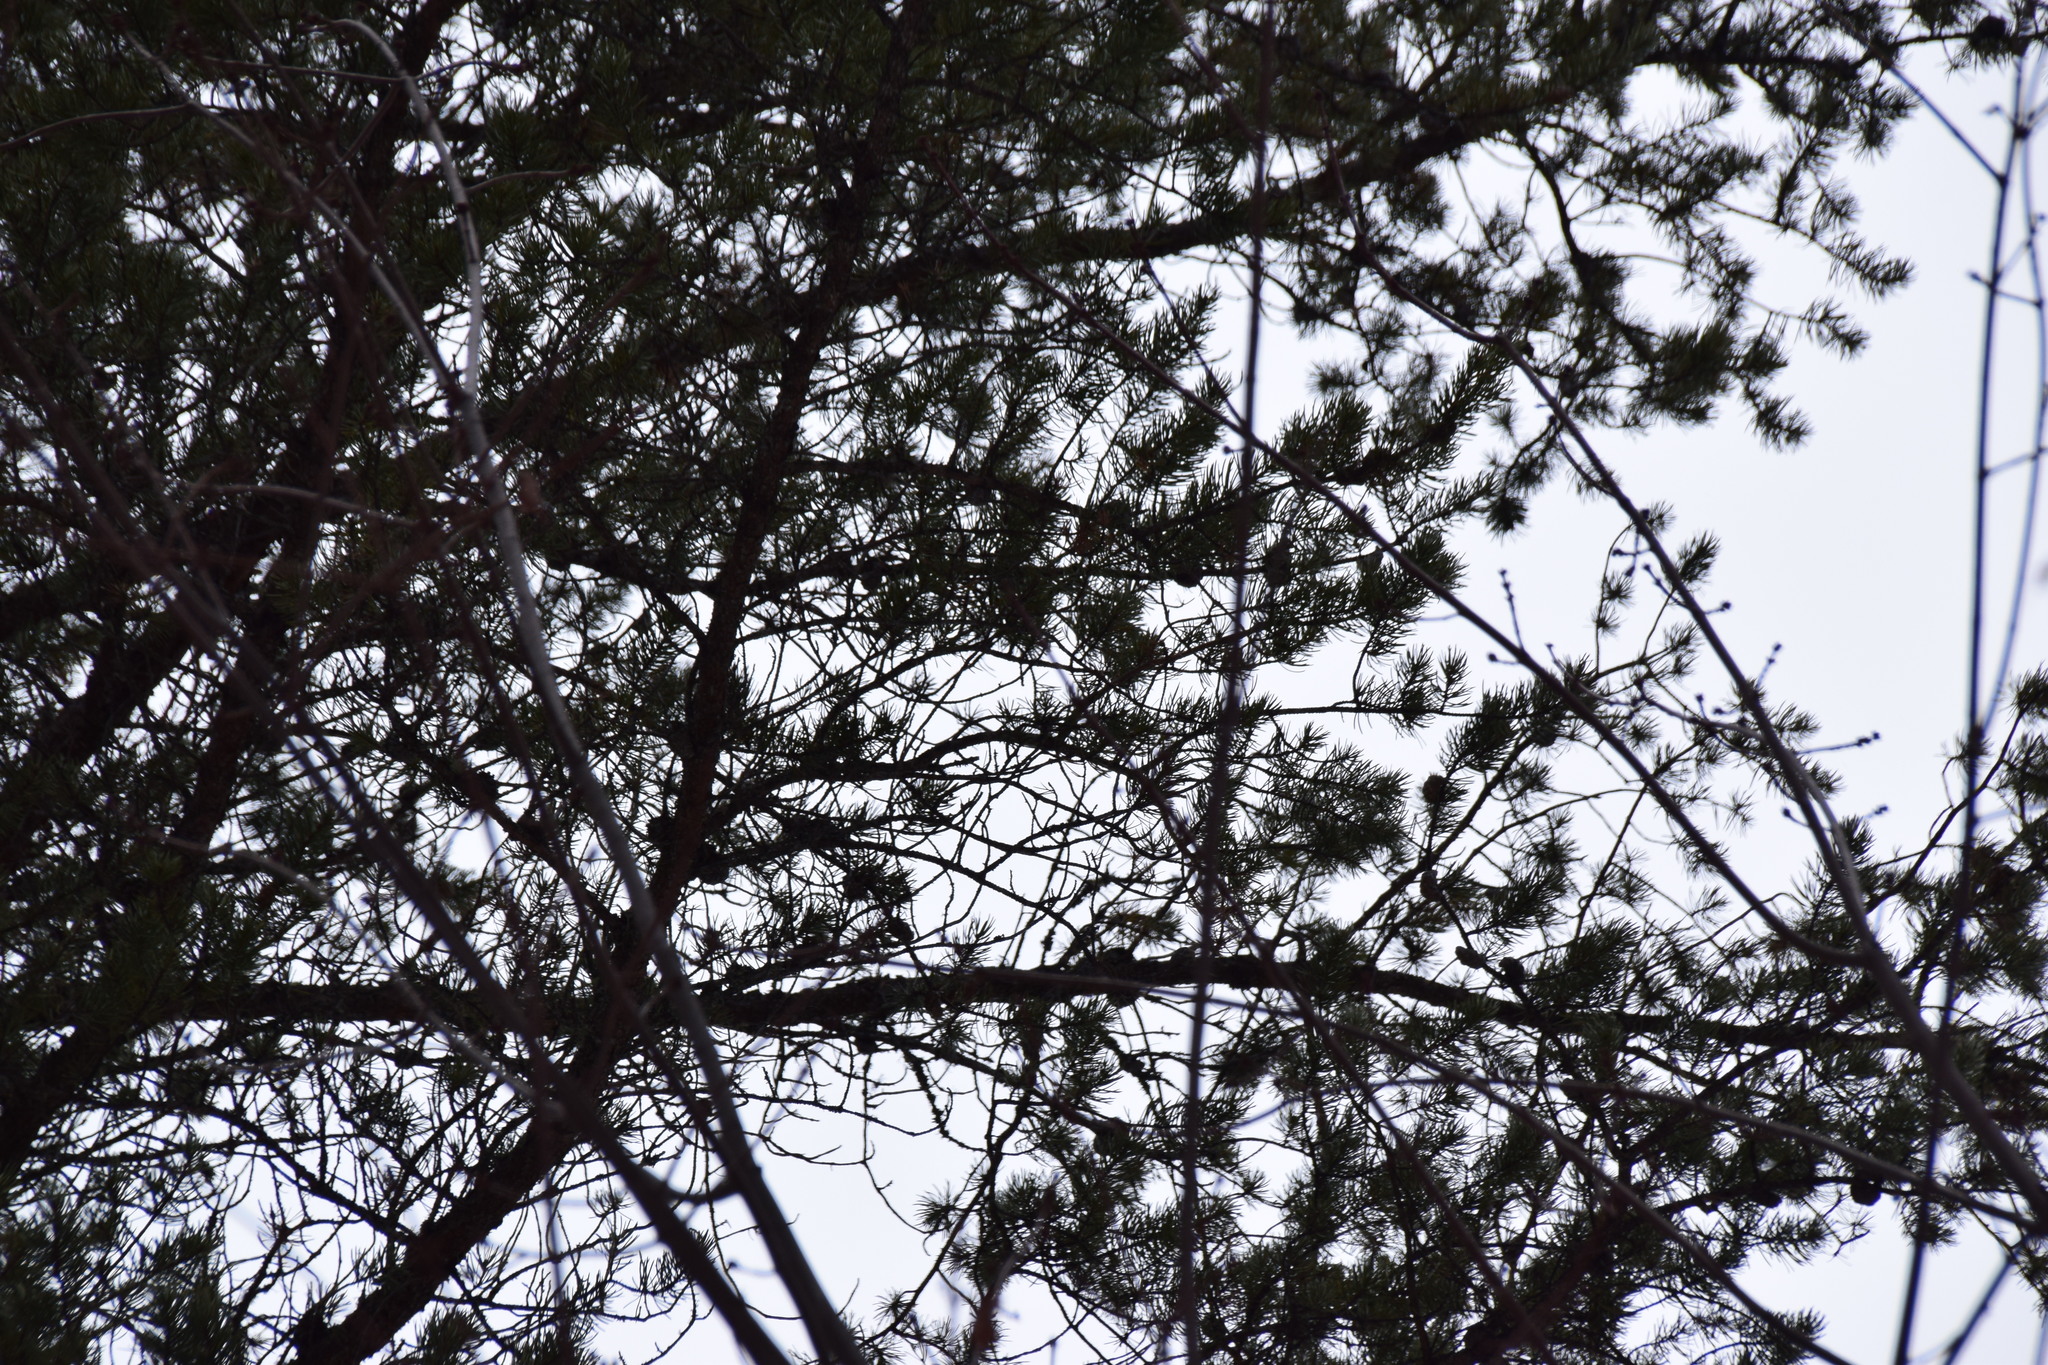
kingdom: Plantae
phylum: Tracheophyta
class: Pinopsida
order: Pinales
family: Pinaceae
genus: Pinus
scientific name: Pinus banksiana
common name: Jack pine
